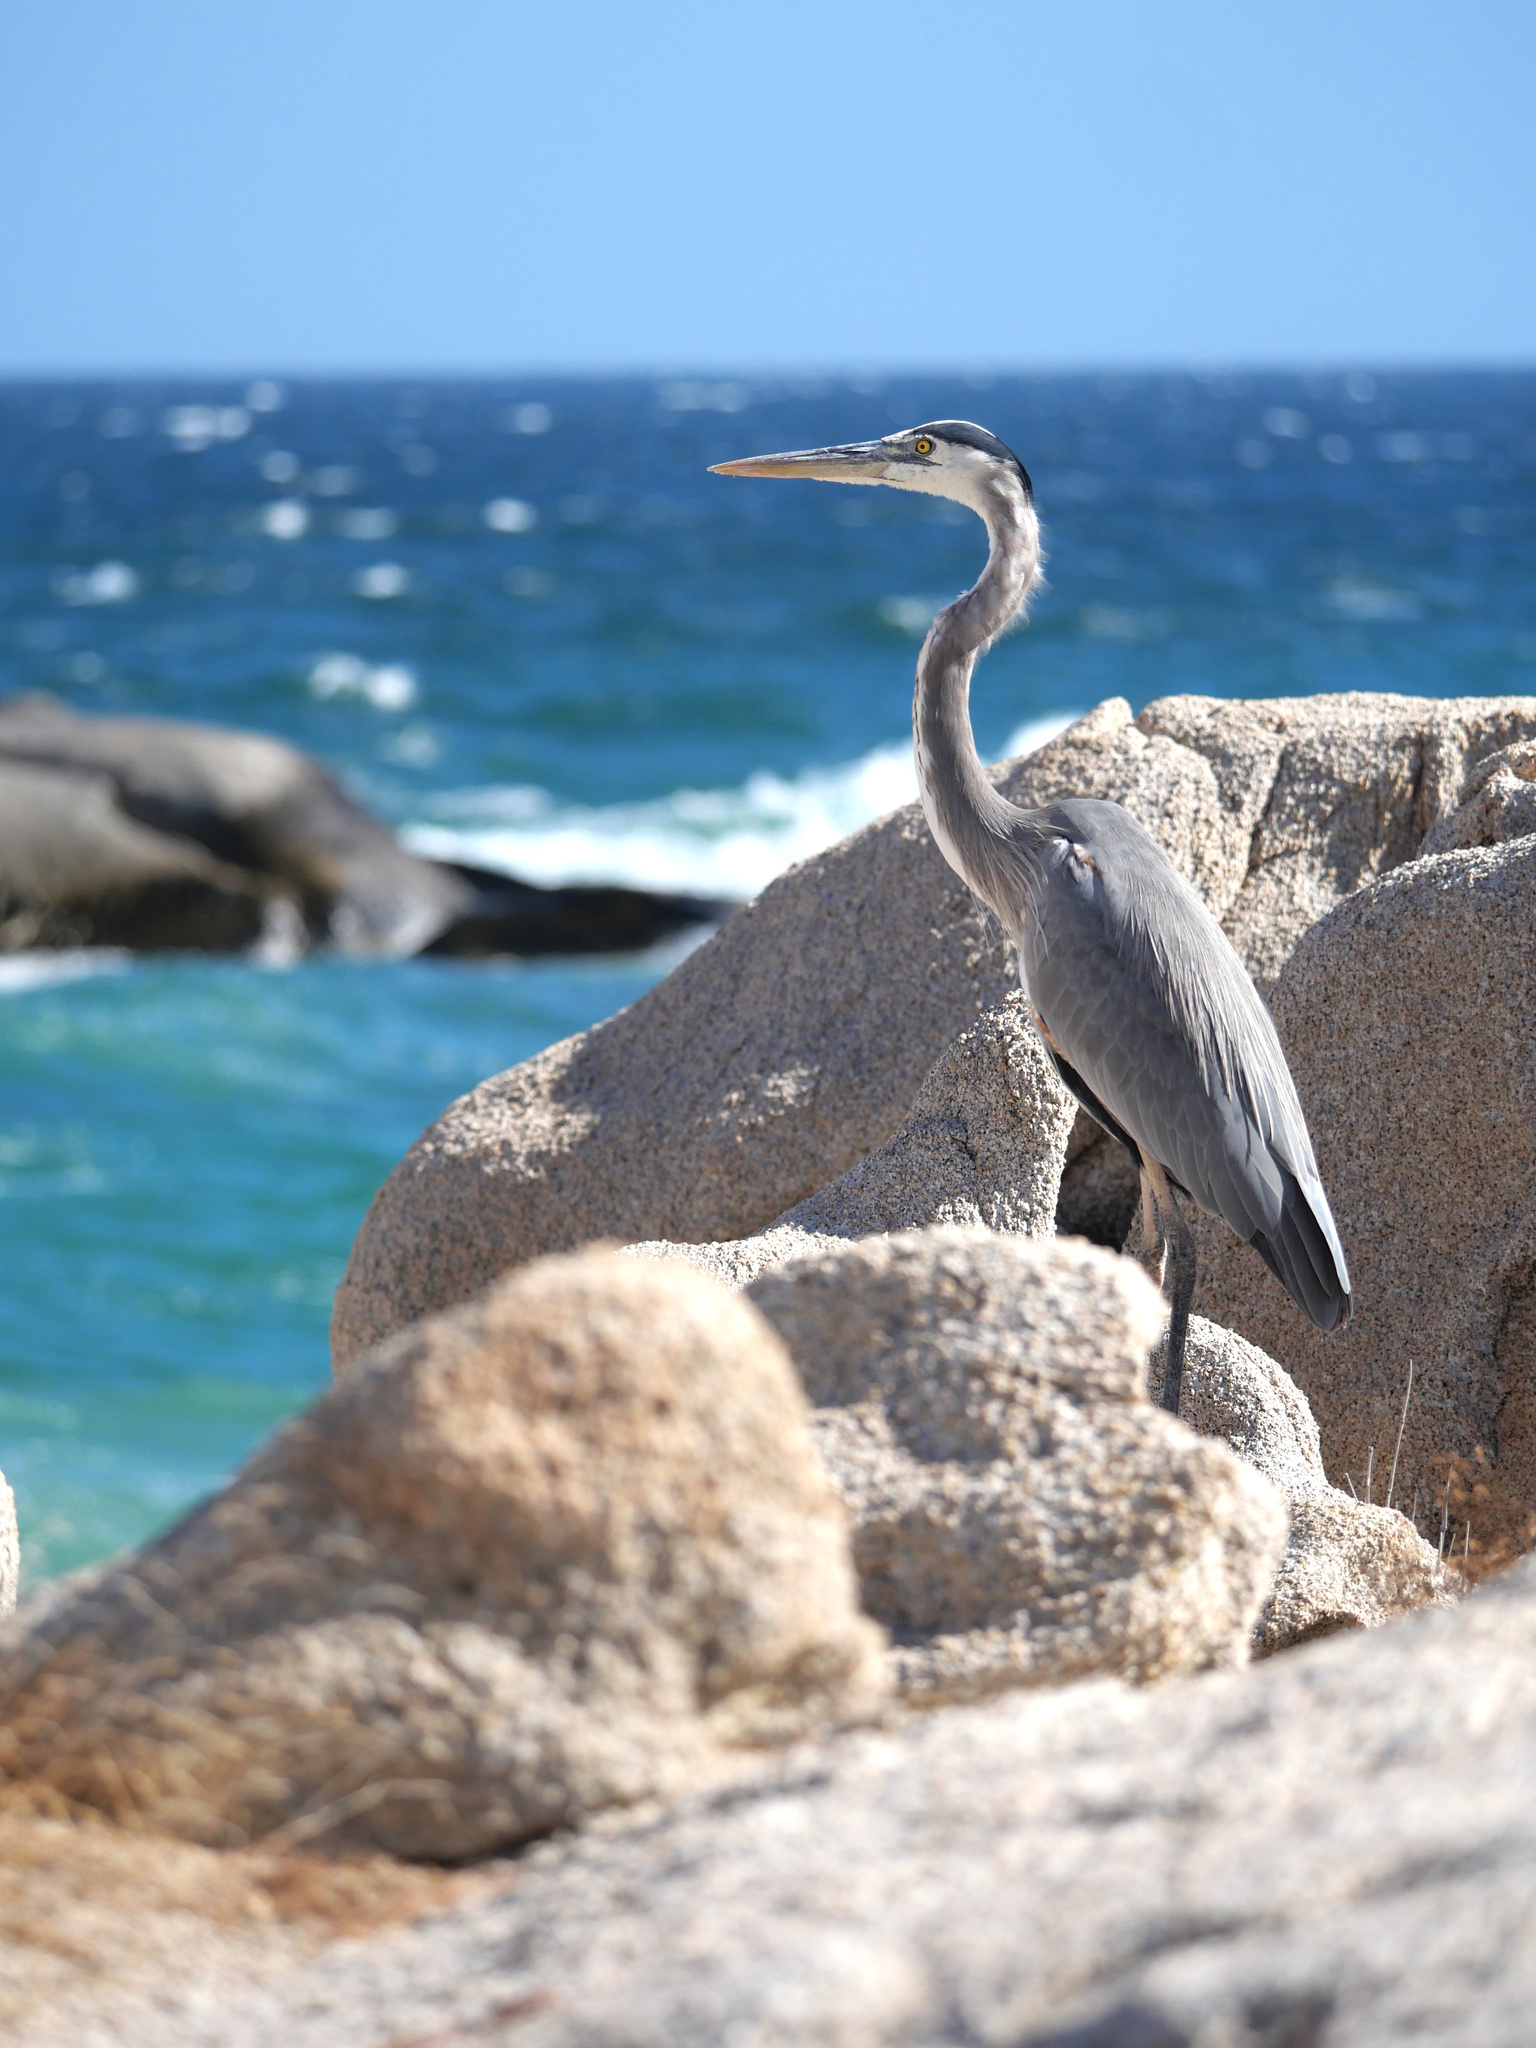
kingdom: Animalia
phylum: Chordata
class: Aves
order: Pelecaniformes
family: Ardeidae
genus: Ardea
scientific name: Ardea herodias
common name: Great blue heron
